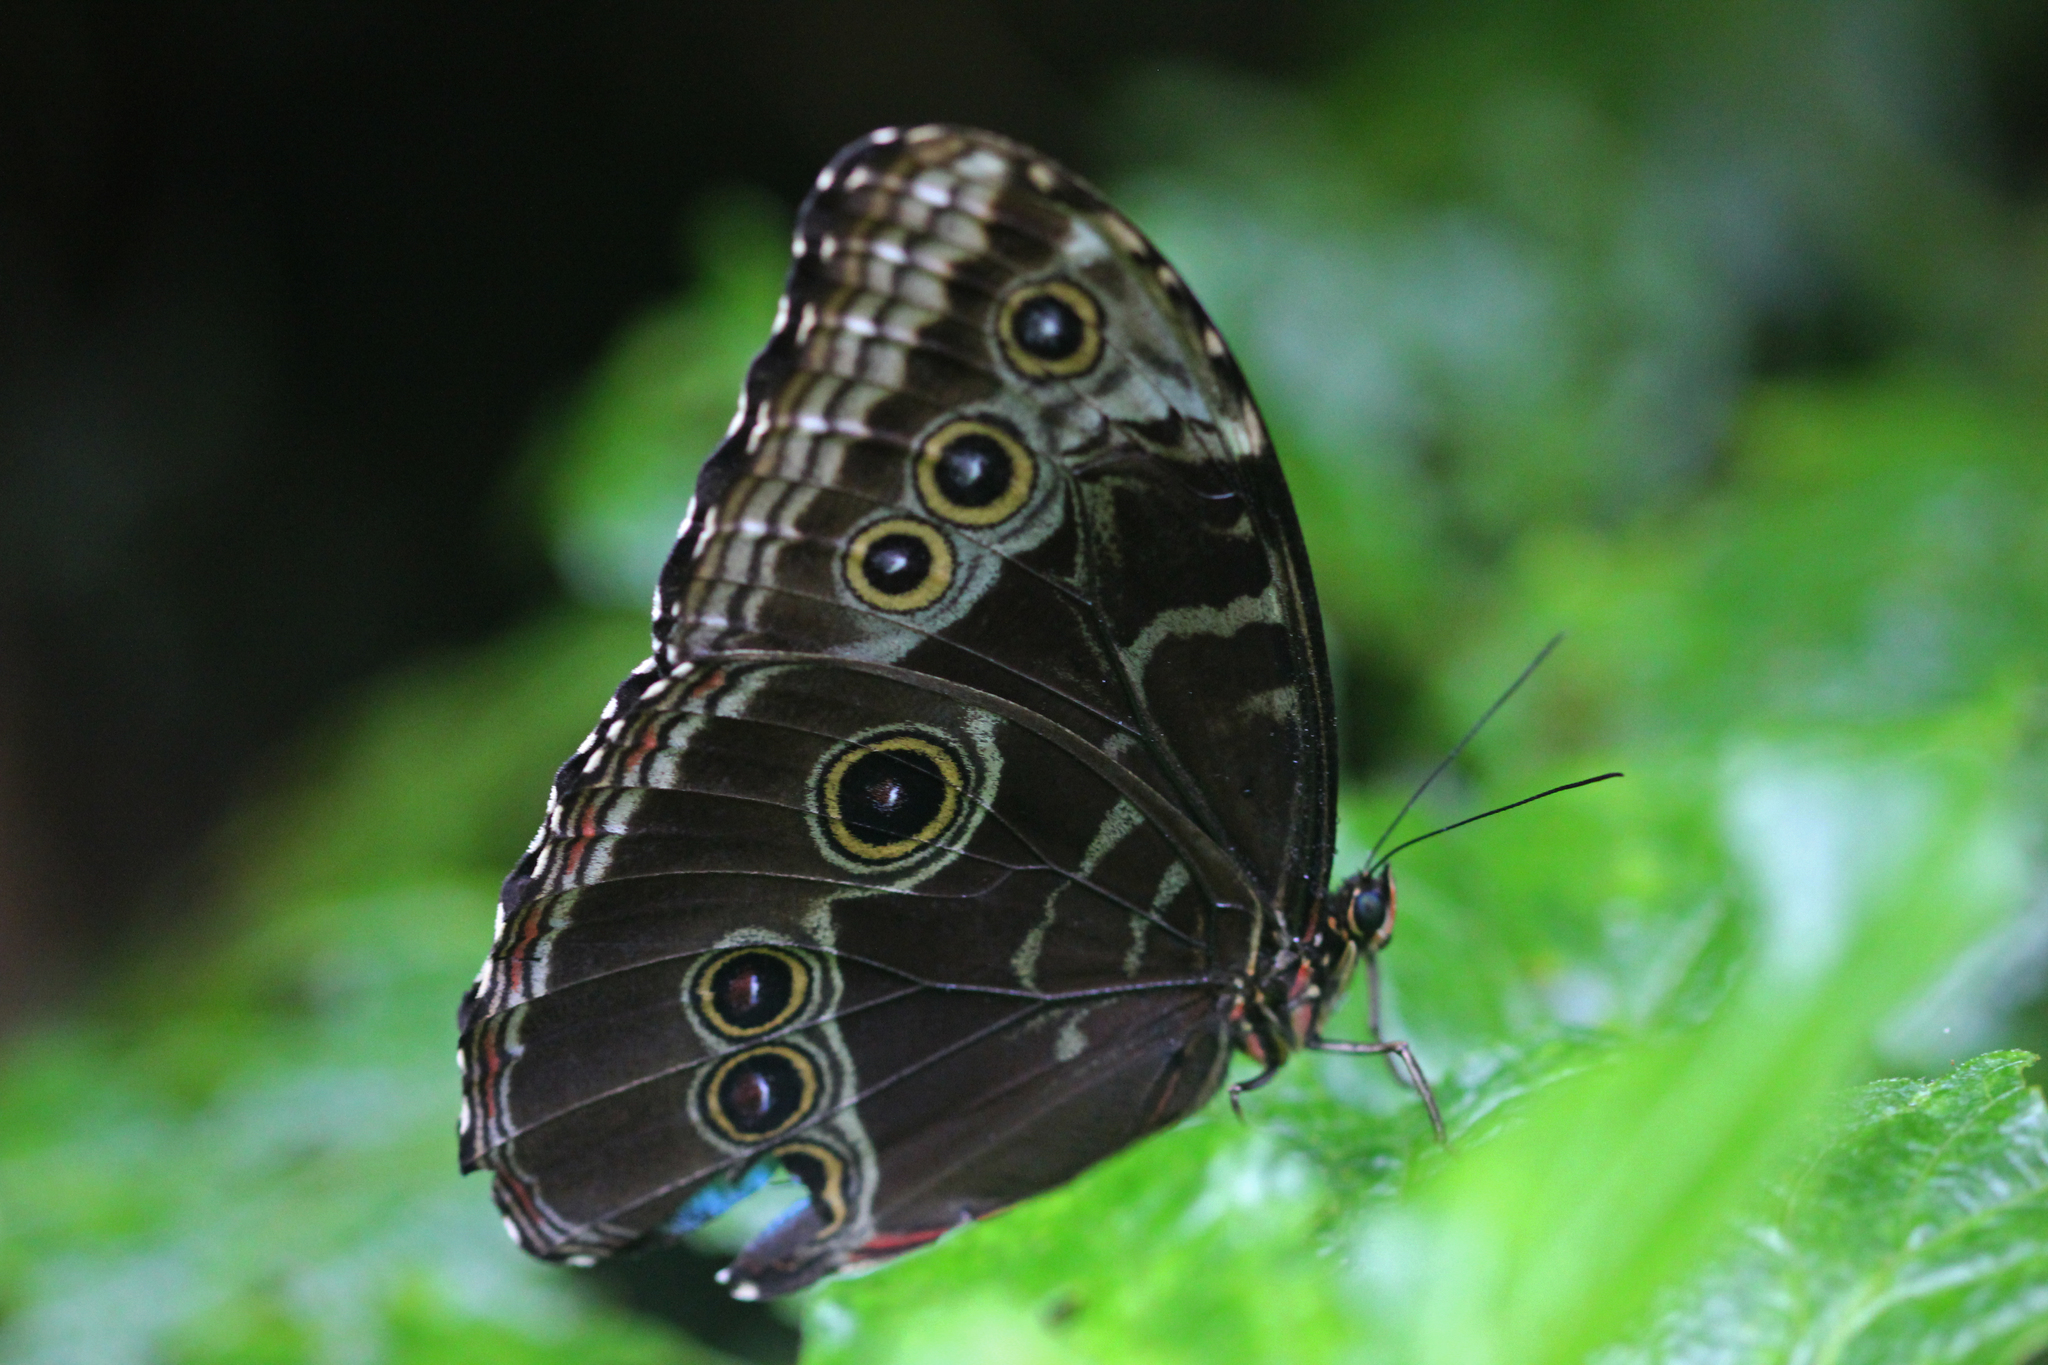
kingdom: Animalia
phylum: Arthropoda
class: Insecta
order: Lepidoptera
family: Nymphalidae
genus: Morpho
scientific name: Morpho helenor
